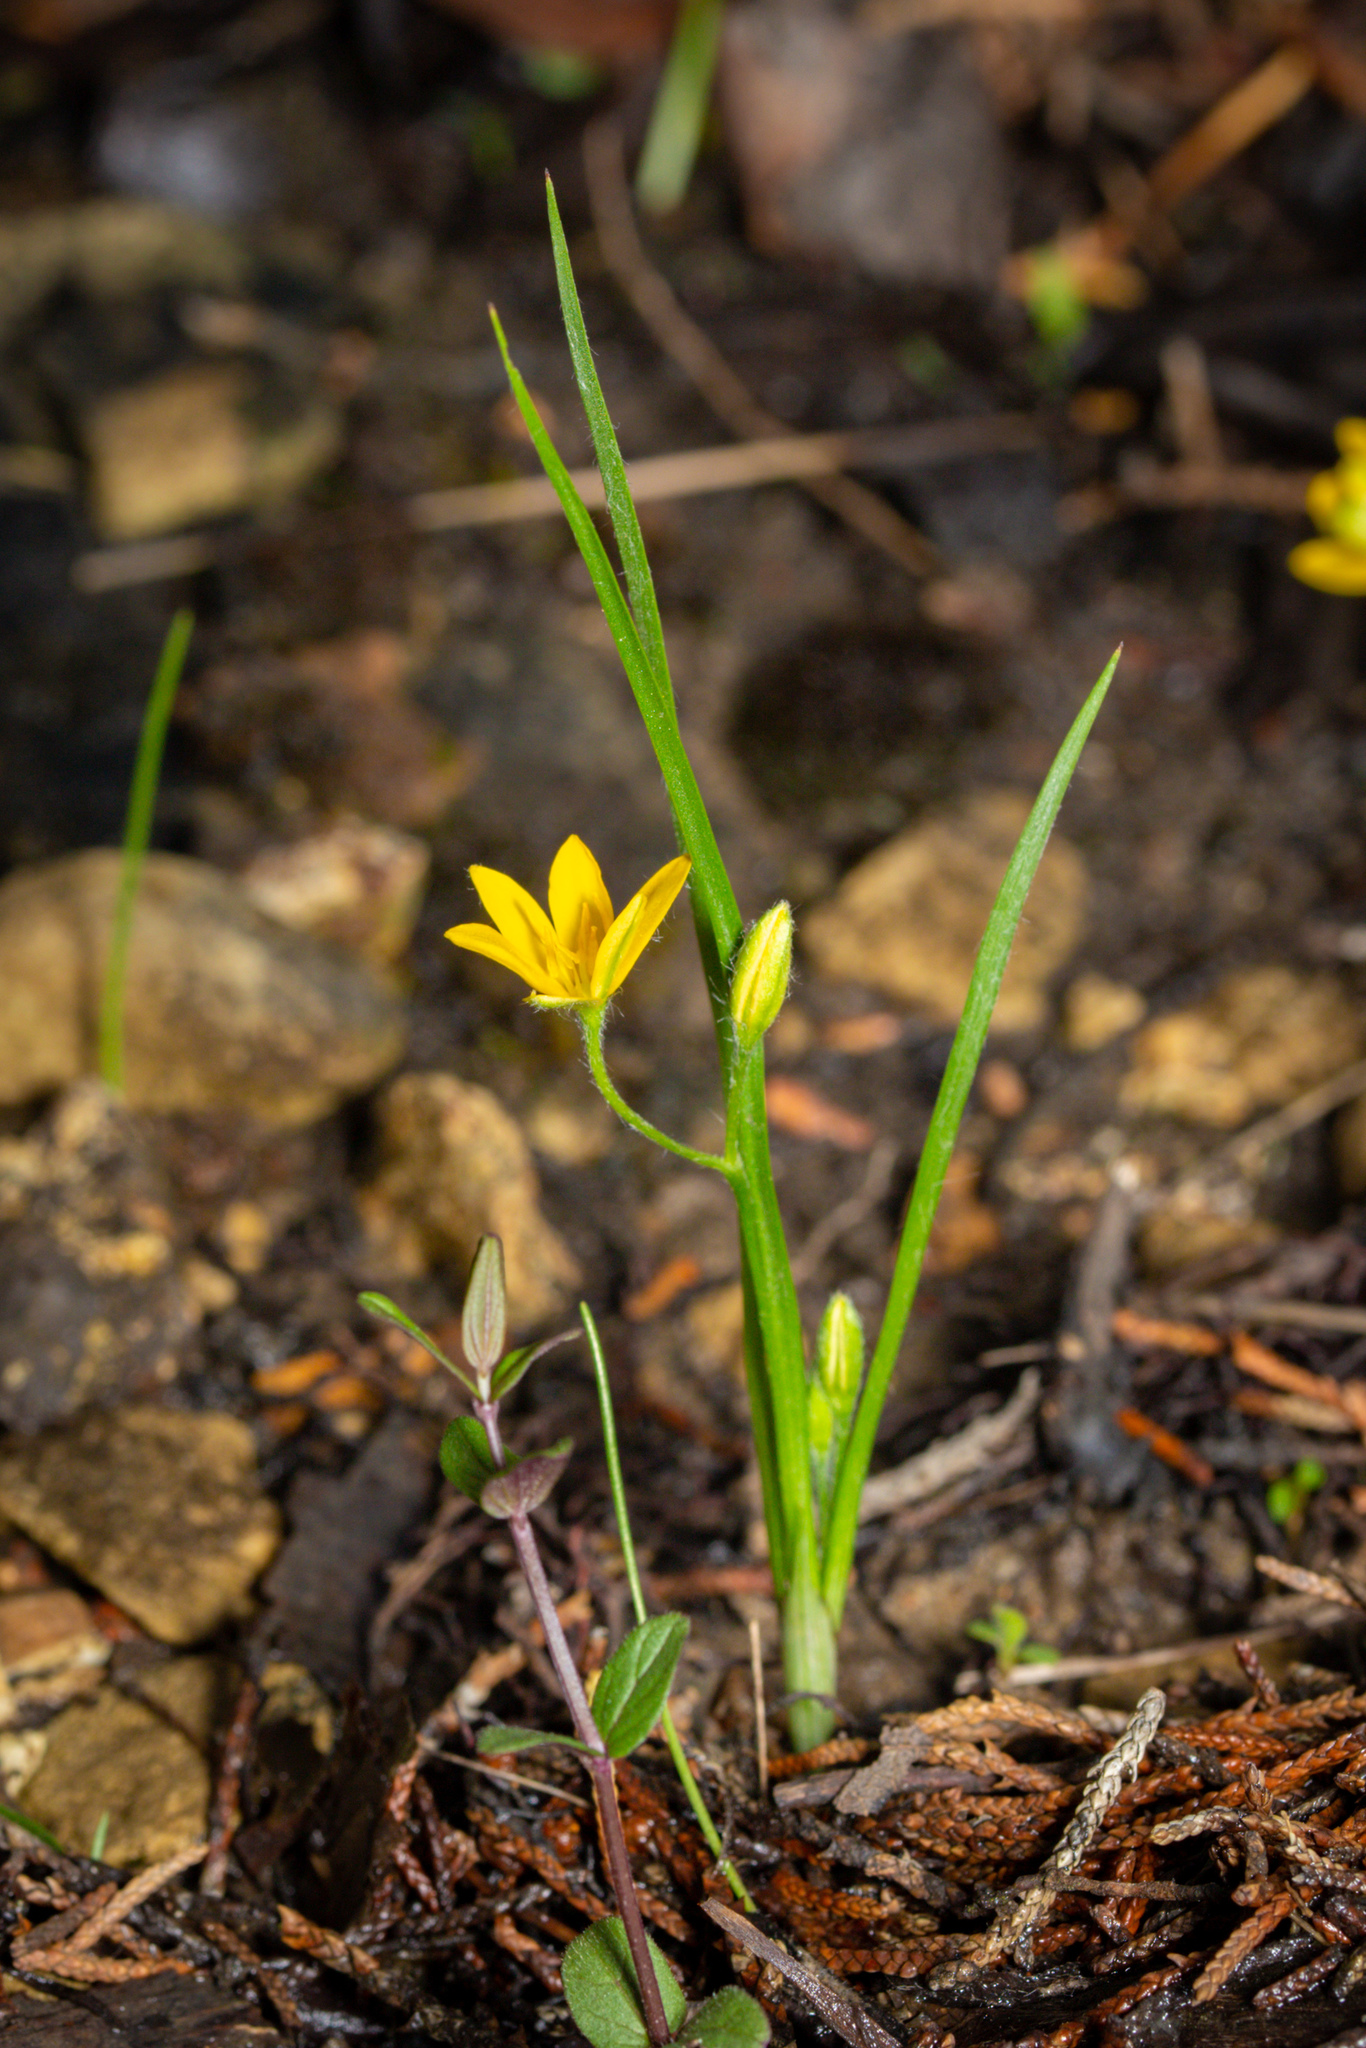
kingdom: Plantae
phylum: Tracheophyta
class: Liliopsida
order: Asparagales
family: Hypoxidaceae
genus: Hypoxis
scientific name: Hypoxis hirsuta
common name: Common goldstar
